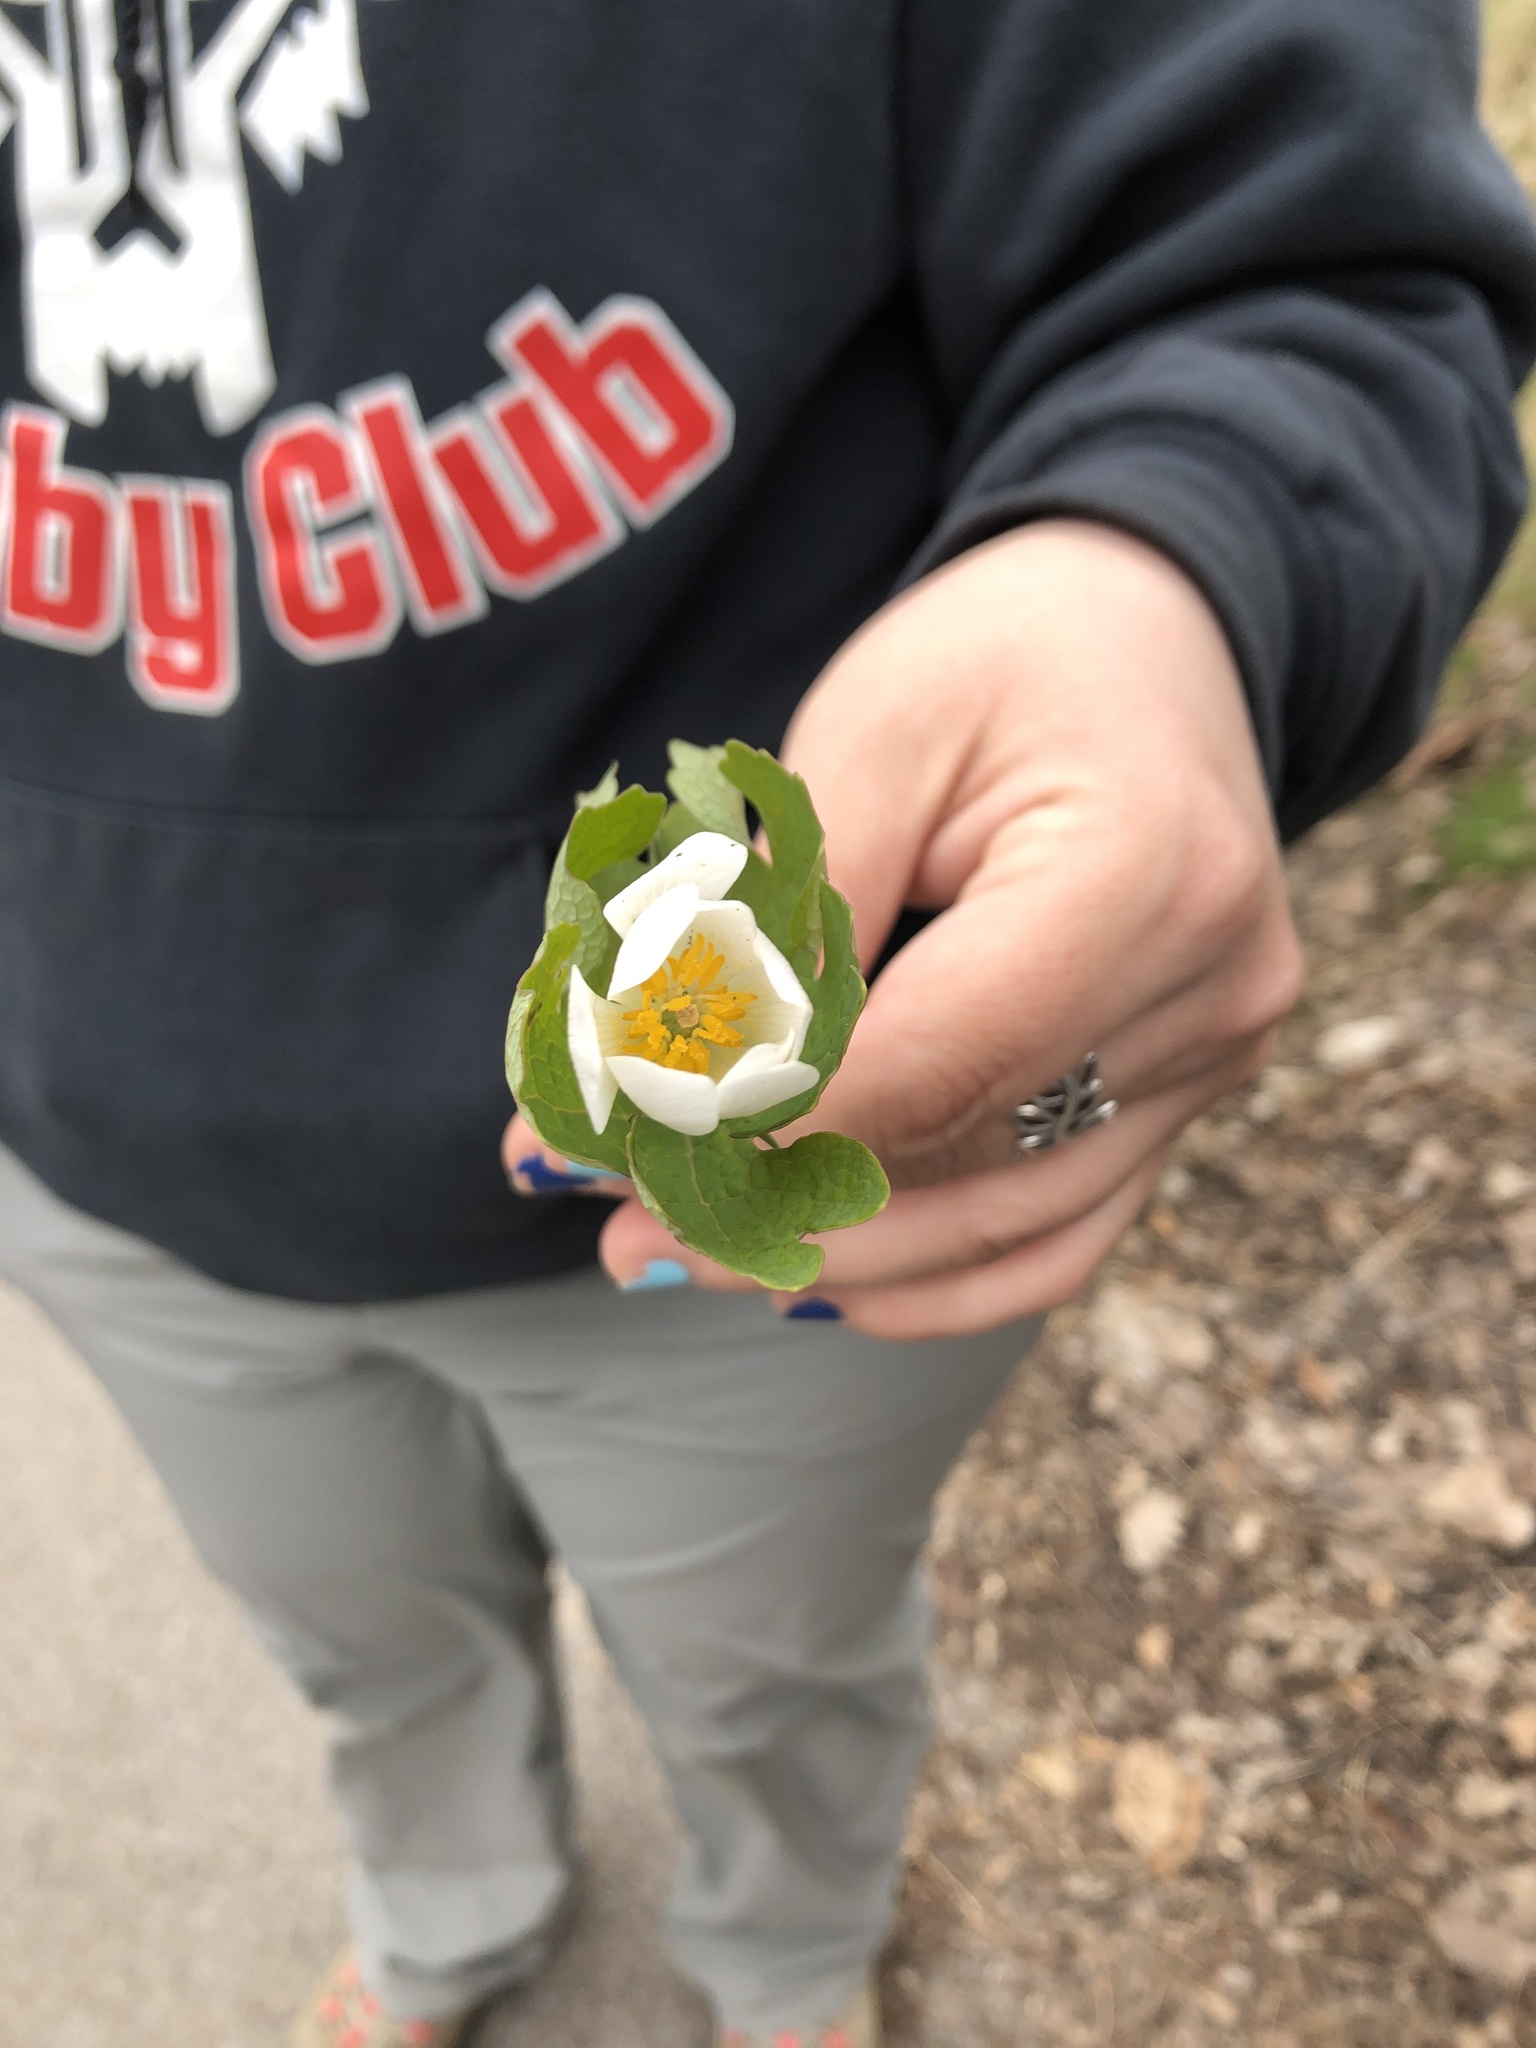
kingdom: Plantae
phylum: Tracheophyta
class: Magnoliopsida
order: Ranunculales
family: Papaveraceae
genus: Sanguinaria
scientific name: Sanguinaria canadensis
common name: Bloodroot
